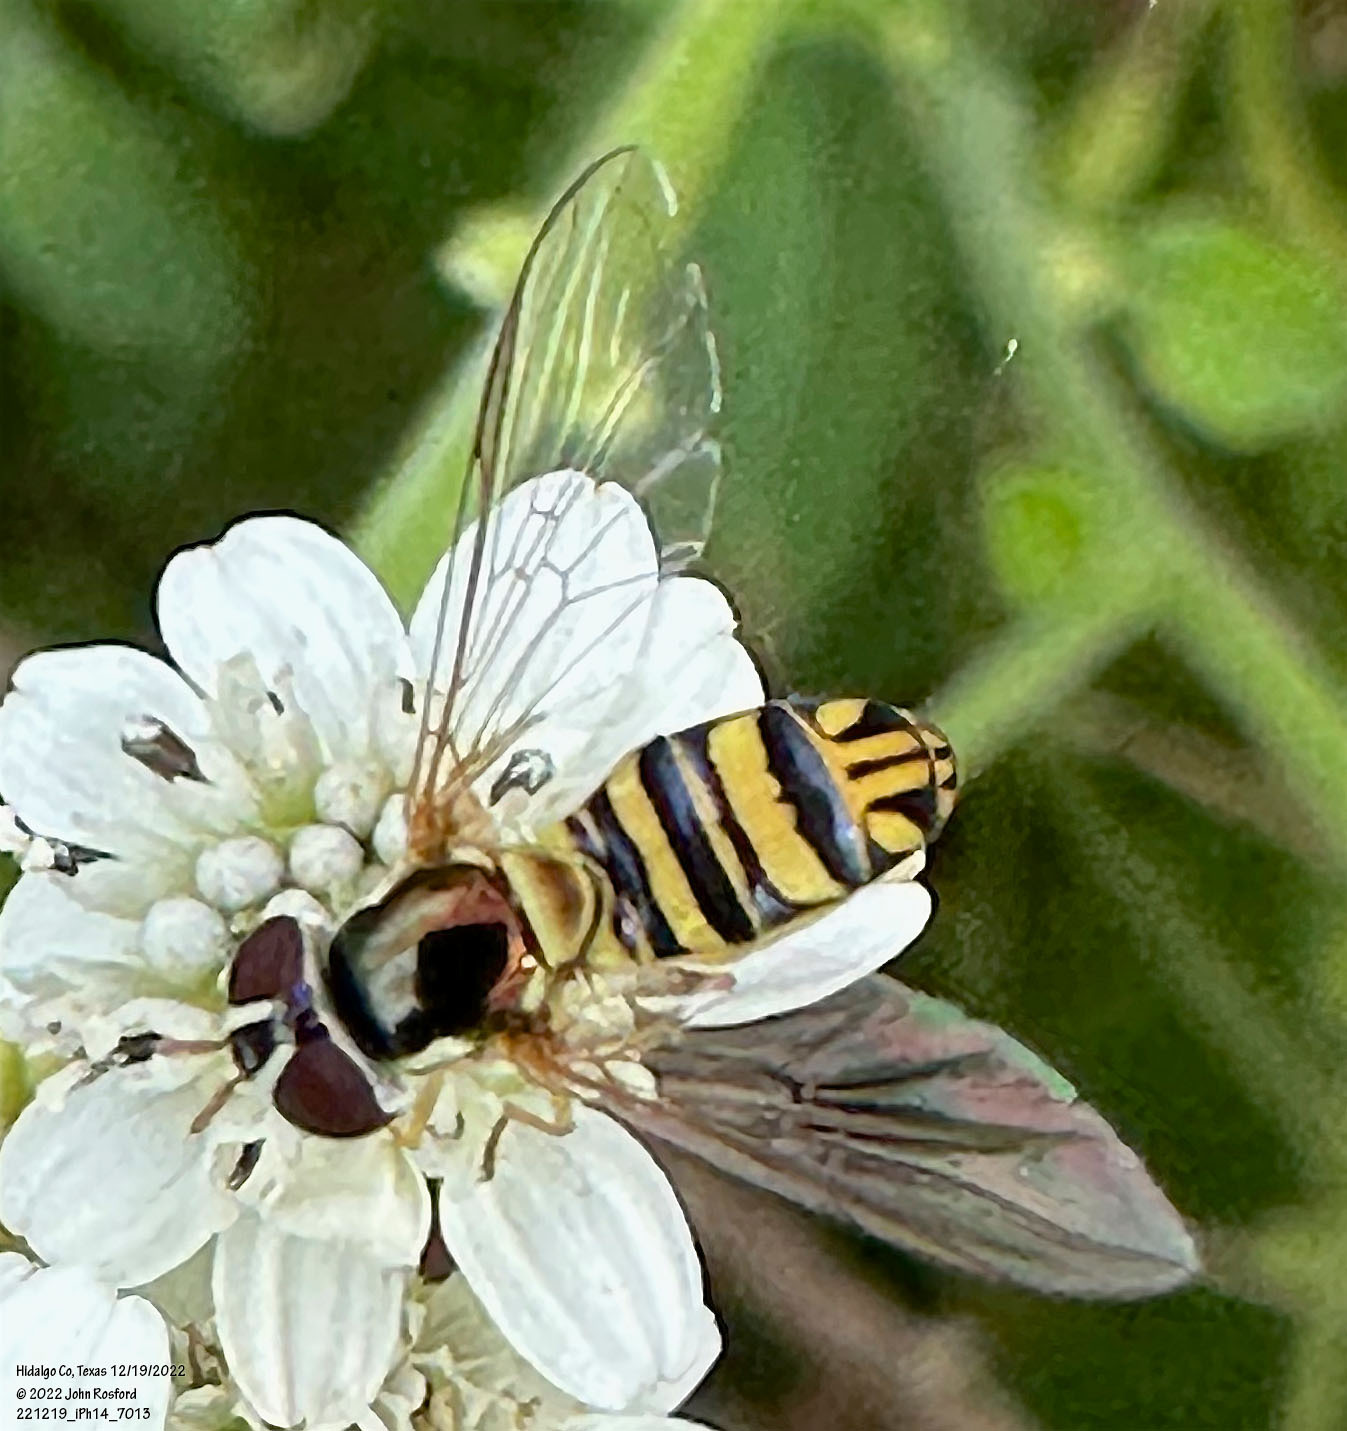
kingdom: Animalia
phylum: Arthropoda
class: Insecta
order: Diptera
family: Syrphidae
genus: Allograpta
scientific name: Allograpta obliqua
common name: Common oblique syrphid
